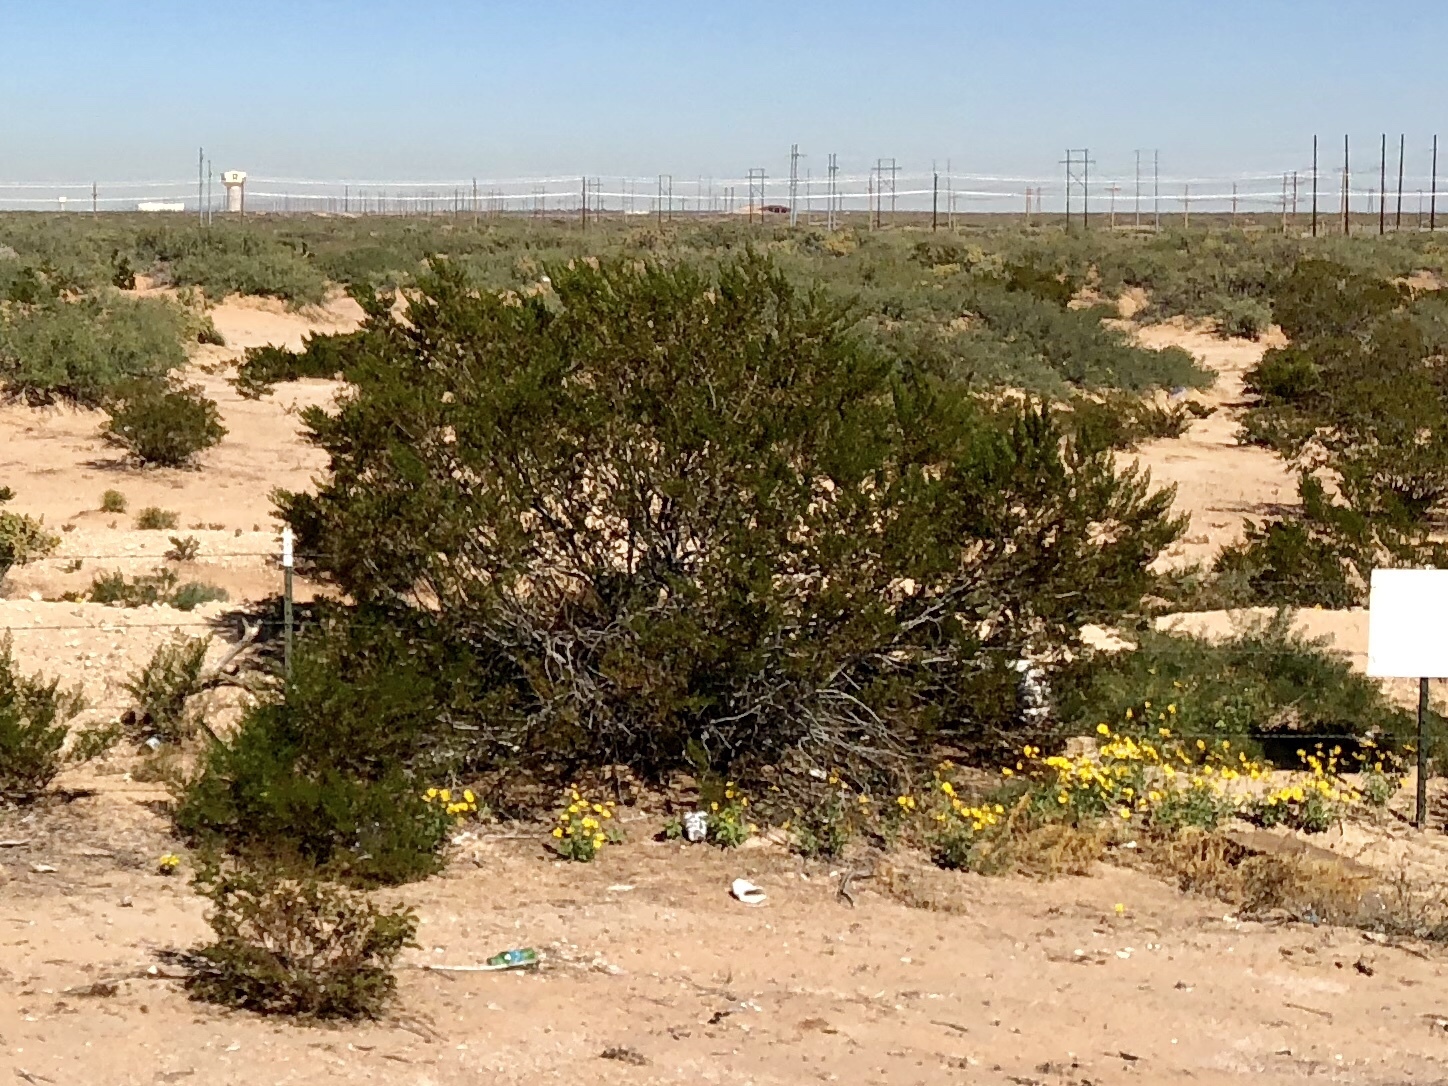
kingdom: Plantae
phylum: Tracheophyta
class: Magnoliopsida
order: Zygophyllales
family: Zygophyllaceae
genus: Larrea
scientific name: Larrea tridentata
